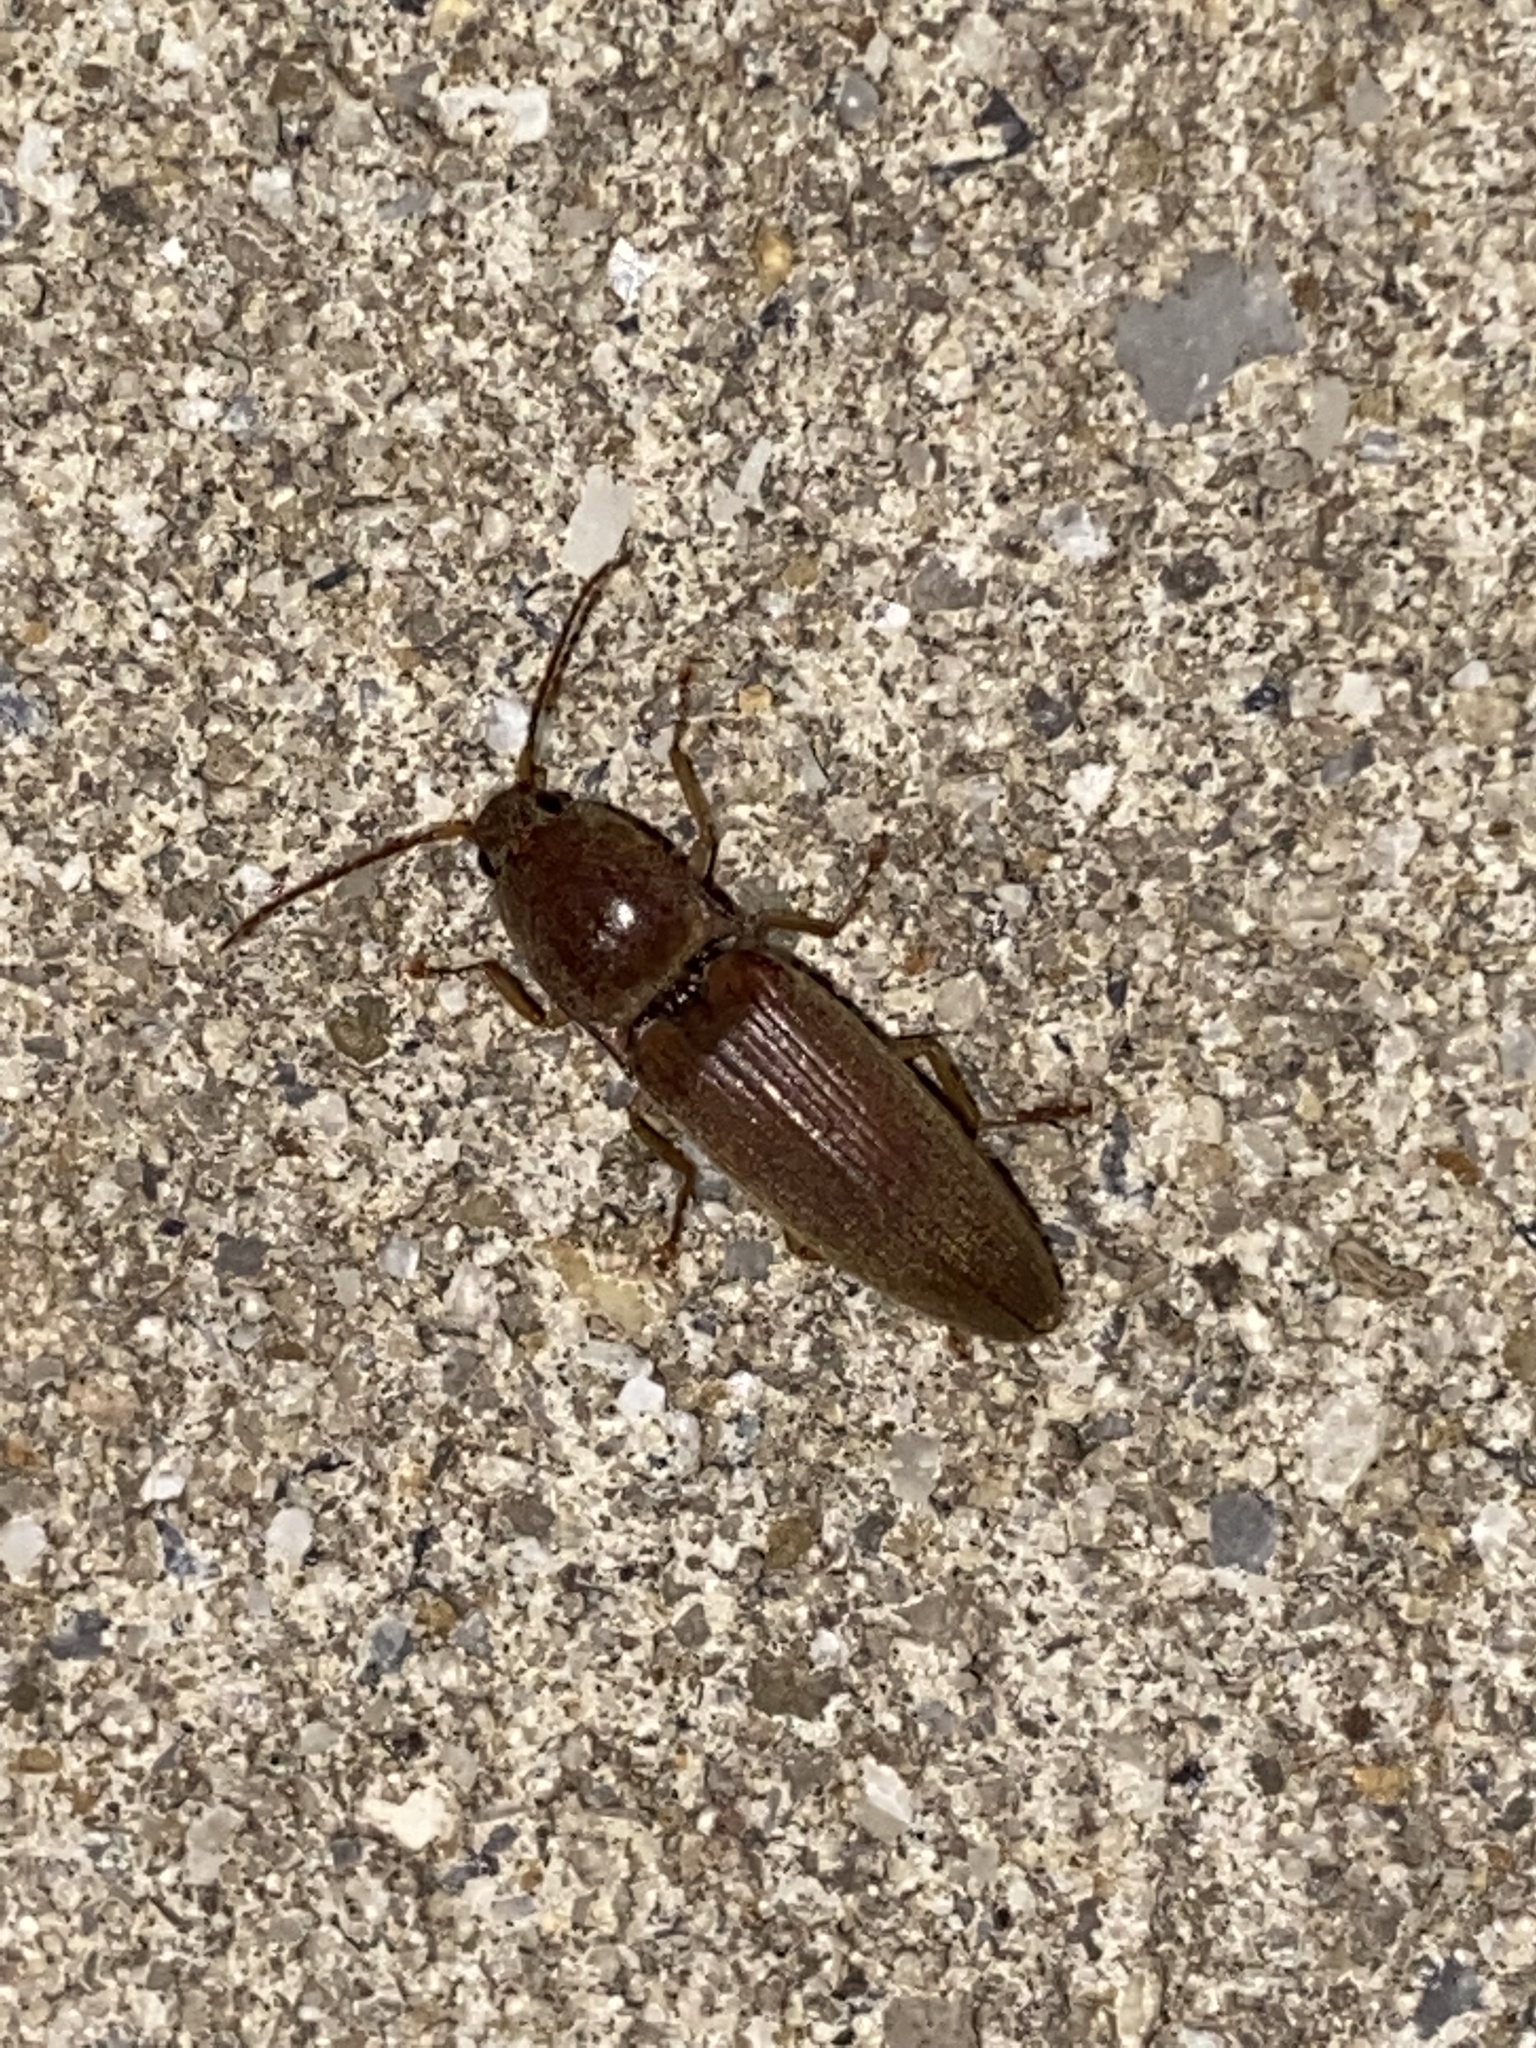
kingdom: Animalia
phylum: Arthropoda
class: Insecta
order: Coleoptera
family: Elateridae
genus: Monocrepidius
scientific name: Monocrepidius lividus
